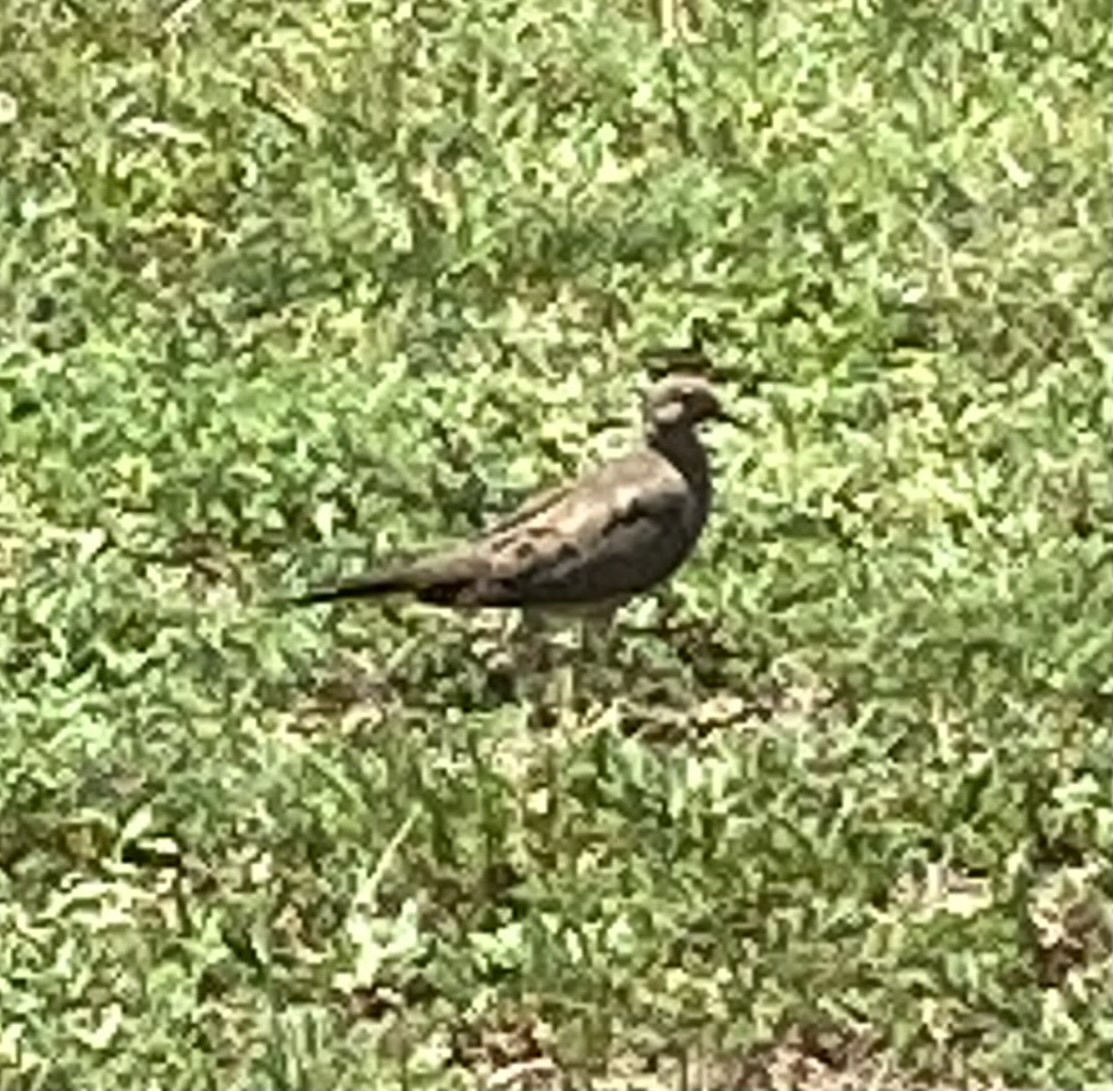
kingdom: Animalia
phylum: Chordata
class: Aves
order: Columbiformes
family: Columbidae
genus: Zenaida
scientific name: Zenaida macroura
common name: Mourning dove
